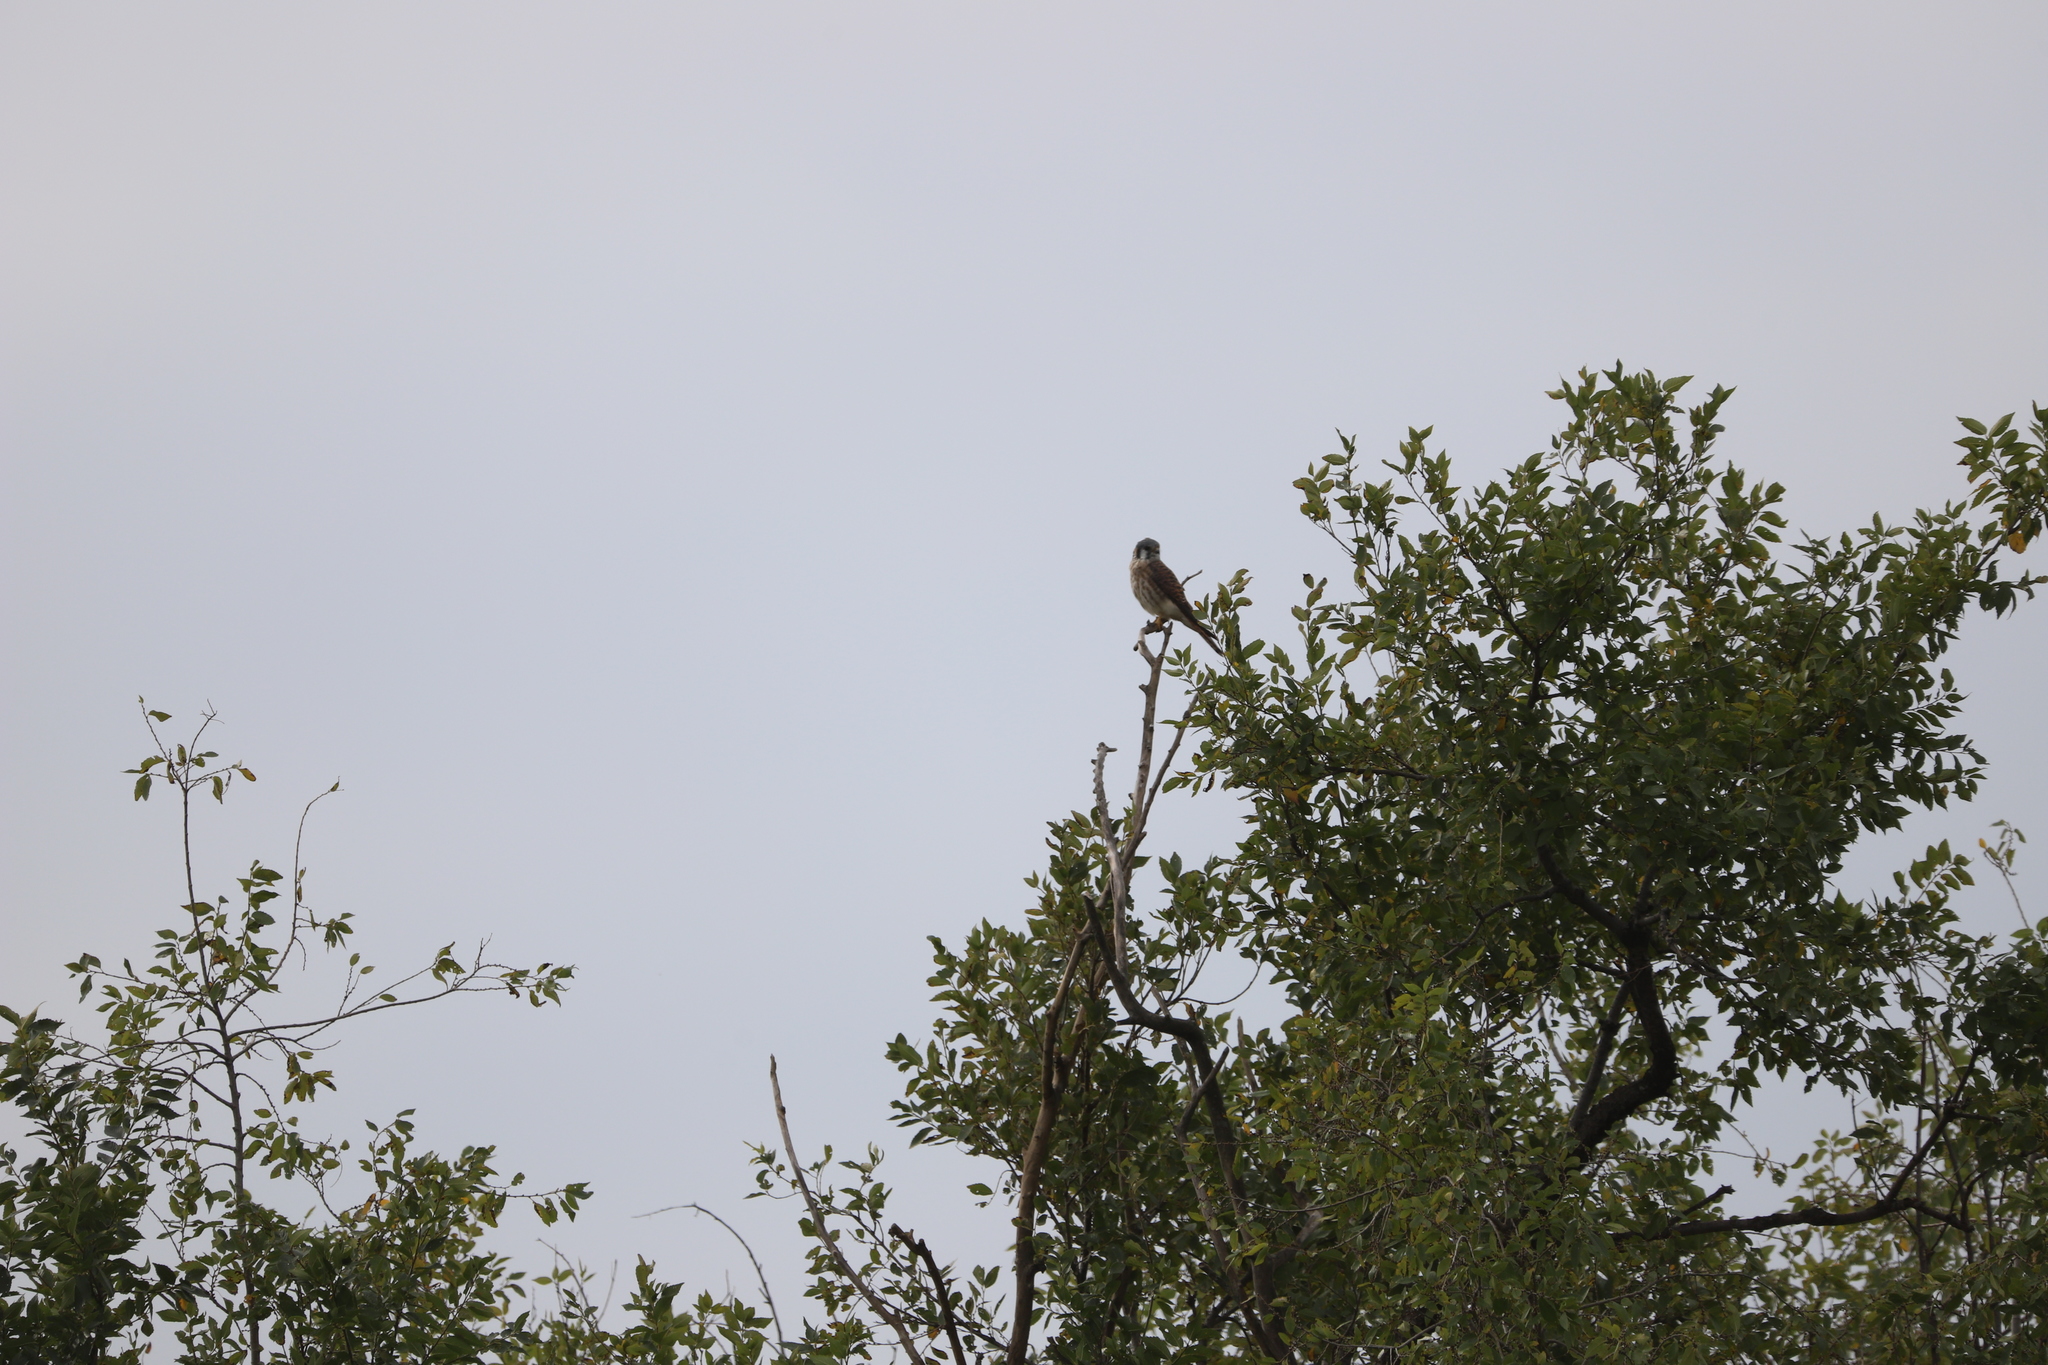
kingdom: Animalia
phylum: Chordata
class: Aves
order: Falconiformes
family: Falconidae
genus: Falco
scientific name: Falco sparverius
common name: American kestrel
